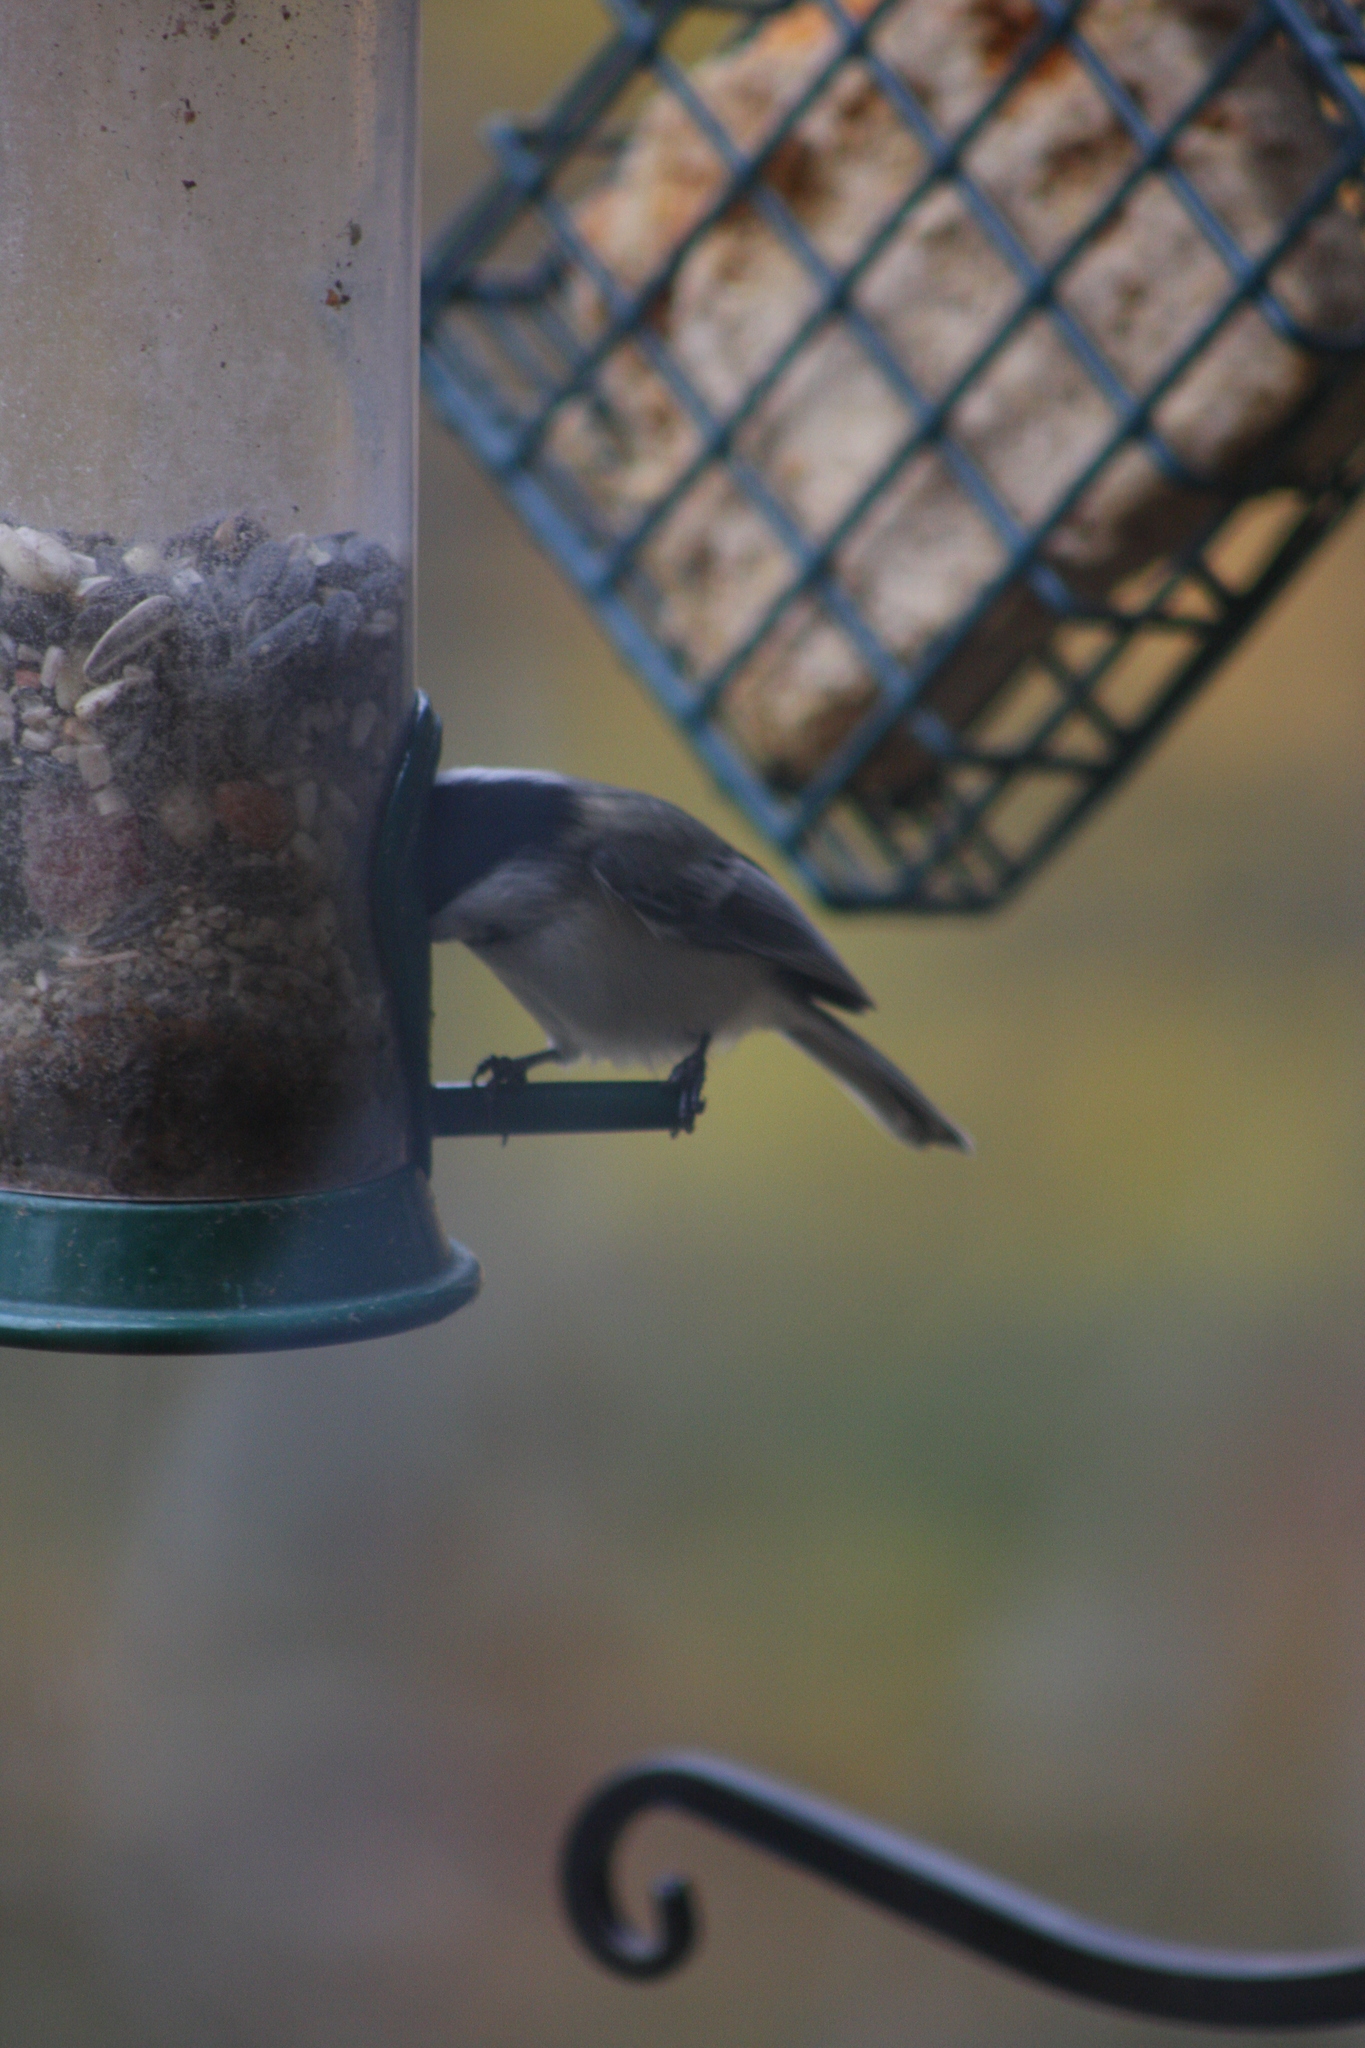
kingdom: Animalia
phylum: Chordata
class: Aves
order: Passeriformes
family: Paridae
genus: Poecile
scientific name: Poecile atricapillus
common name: Black-capped chickadee
